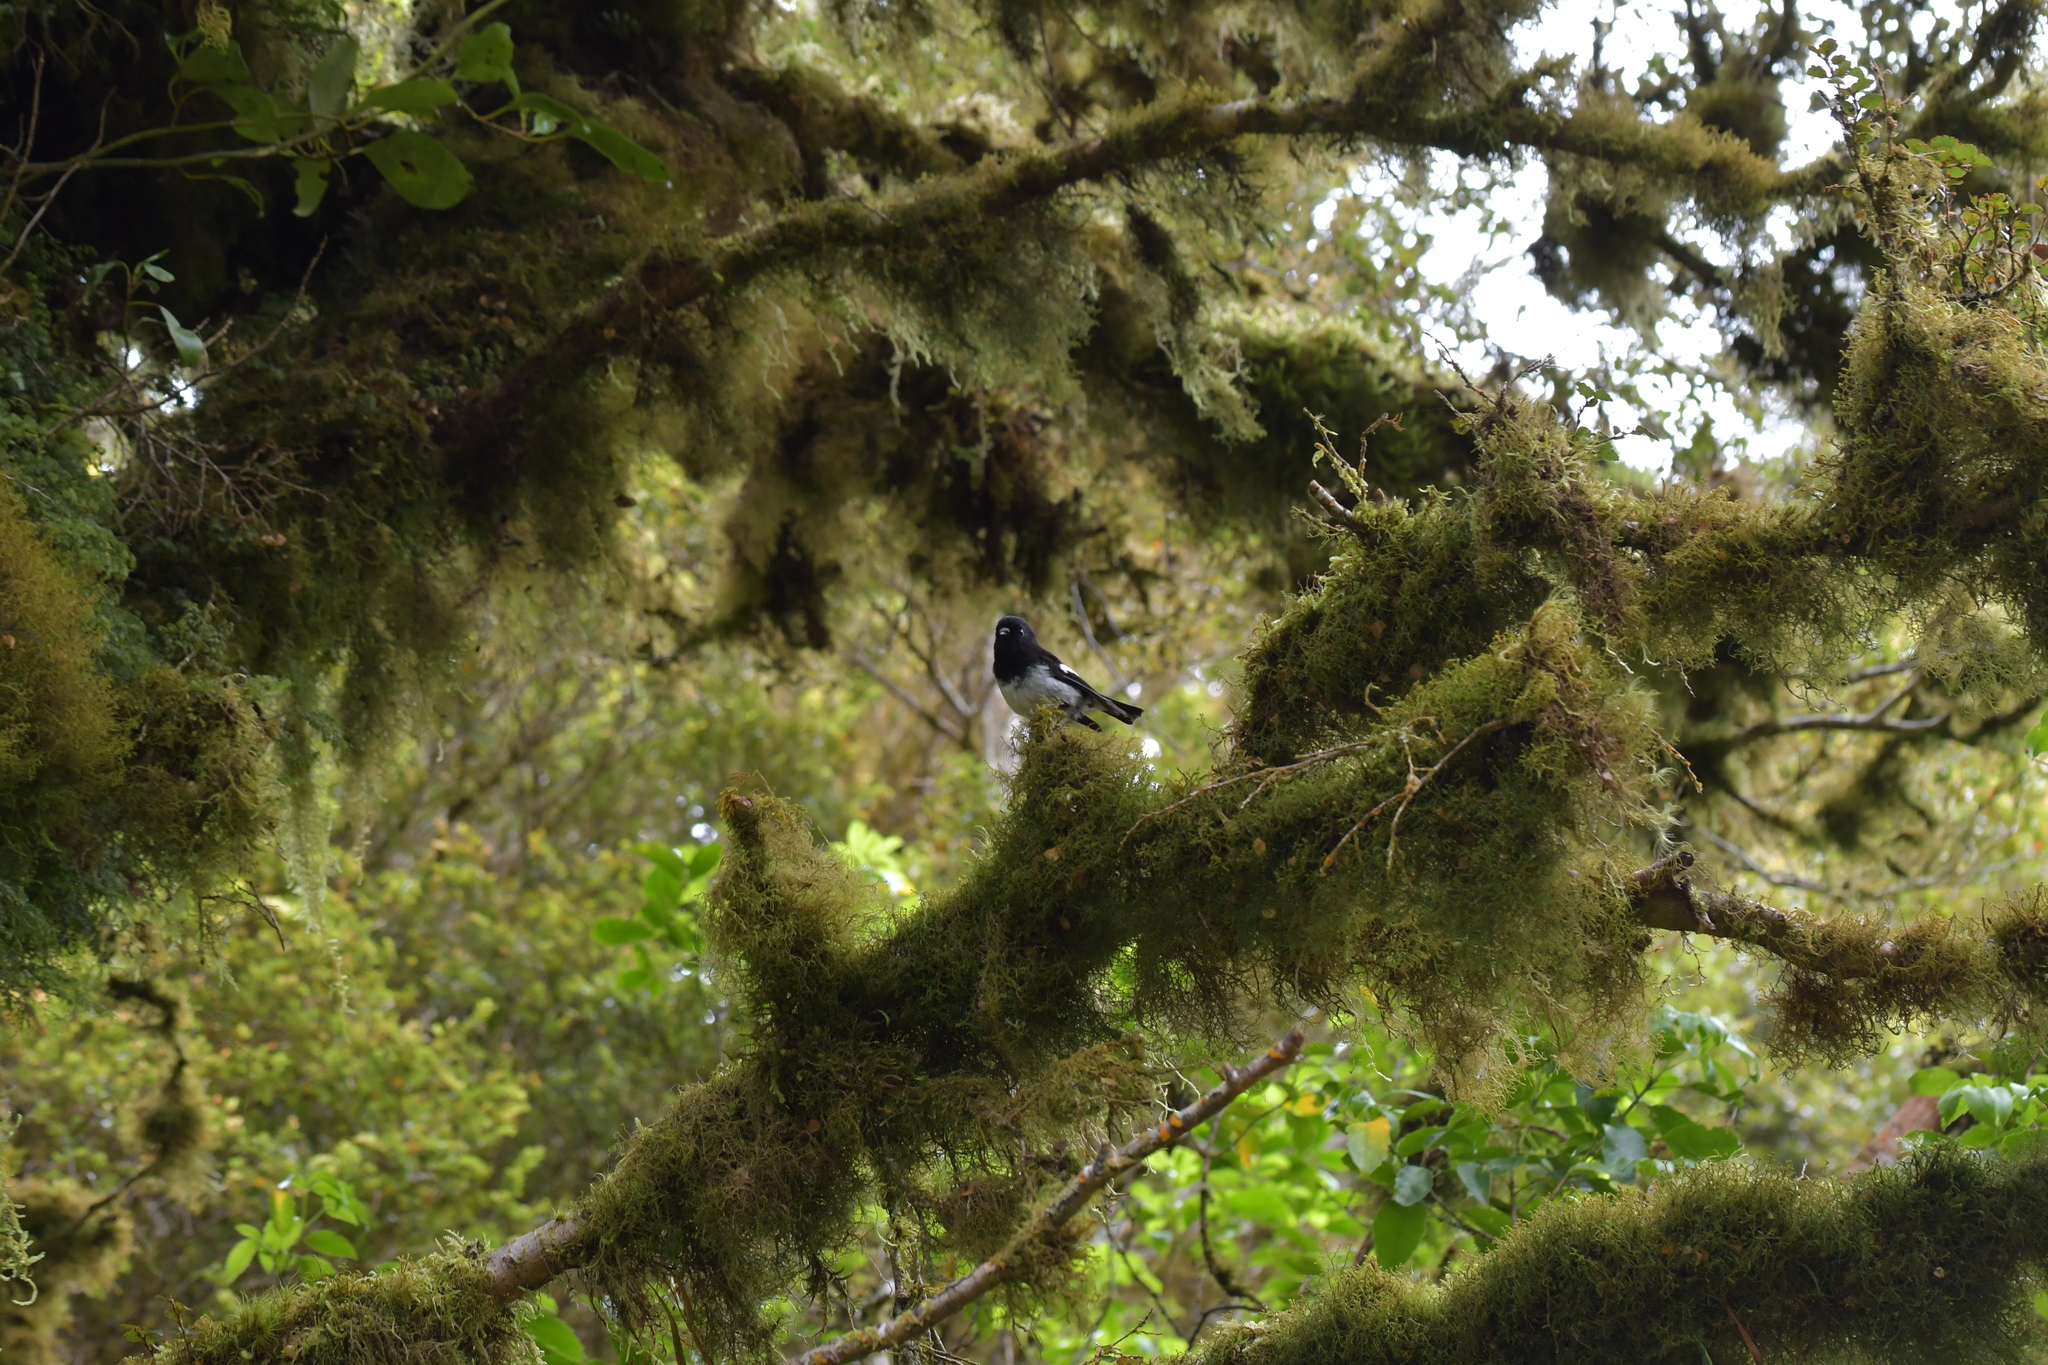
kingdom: Animalia
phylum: Chordata
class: Aves
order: Passeriformes
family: Petroicidae
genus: Petroica
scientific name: Petroica macrocephala
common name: Tomtit
